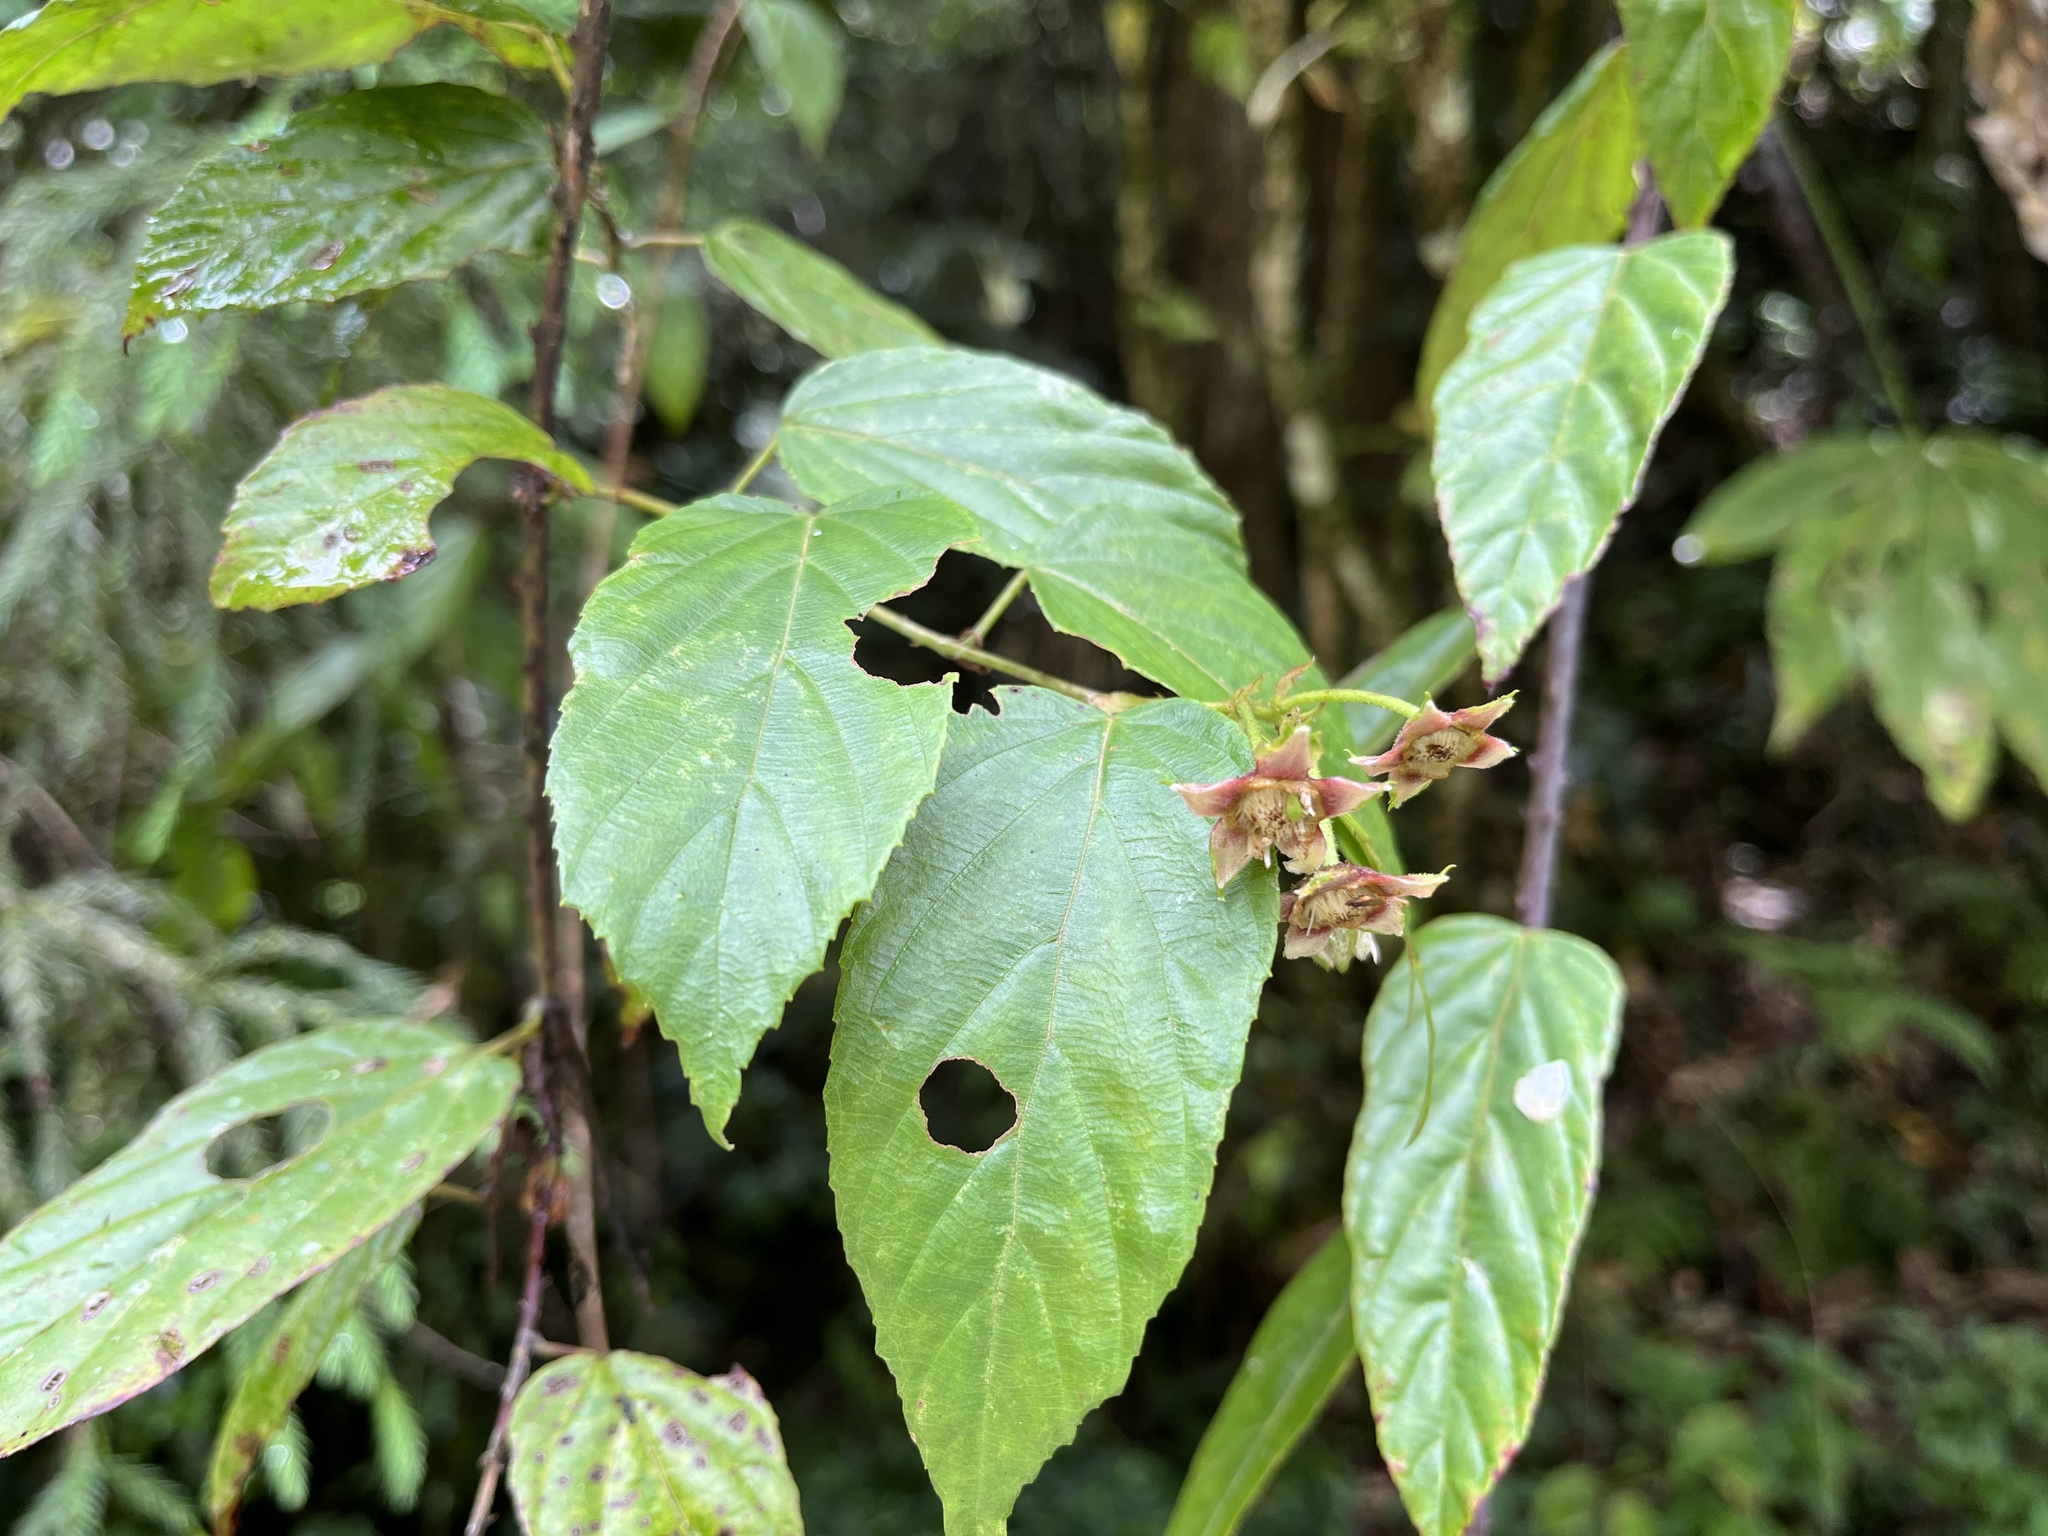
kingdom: Plantae
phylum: Tracheophyta
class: Magnoliopsida
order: Rosales
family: Rosaceae
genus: Rubus
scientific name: Rubus kawakamii
